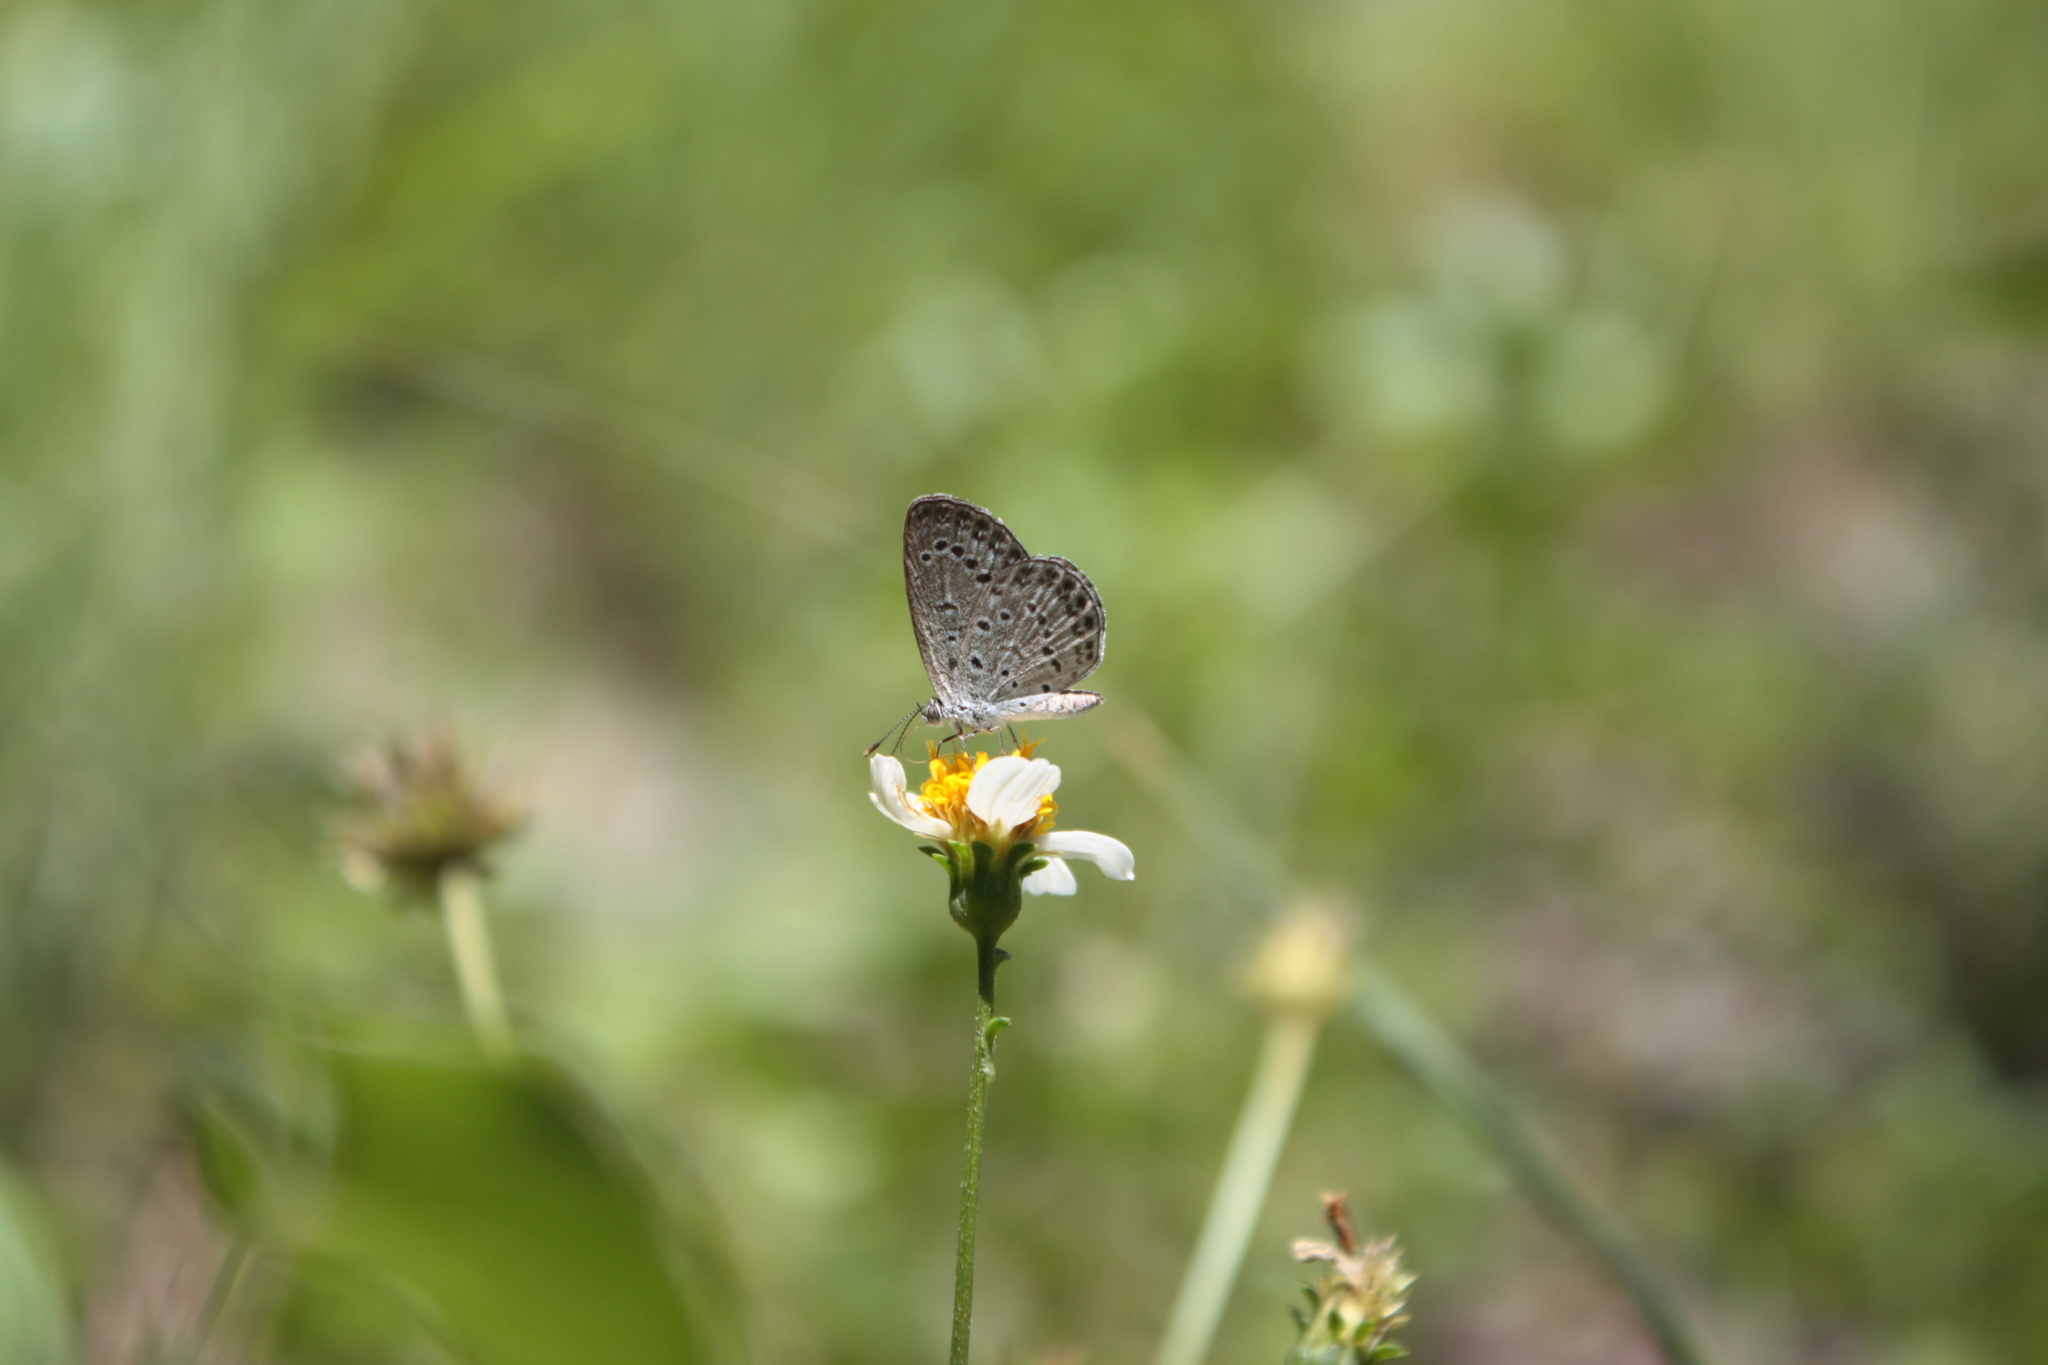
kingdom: Animalia
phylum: Arthropoda
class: Insecta
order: Lepidoptera
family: Lycaenidae
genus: Pseudozizeeria
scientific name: Pseudozizeeria maha
